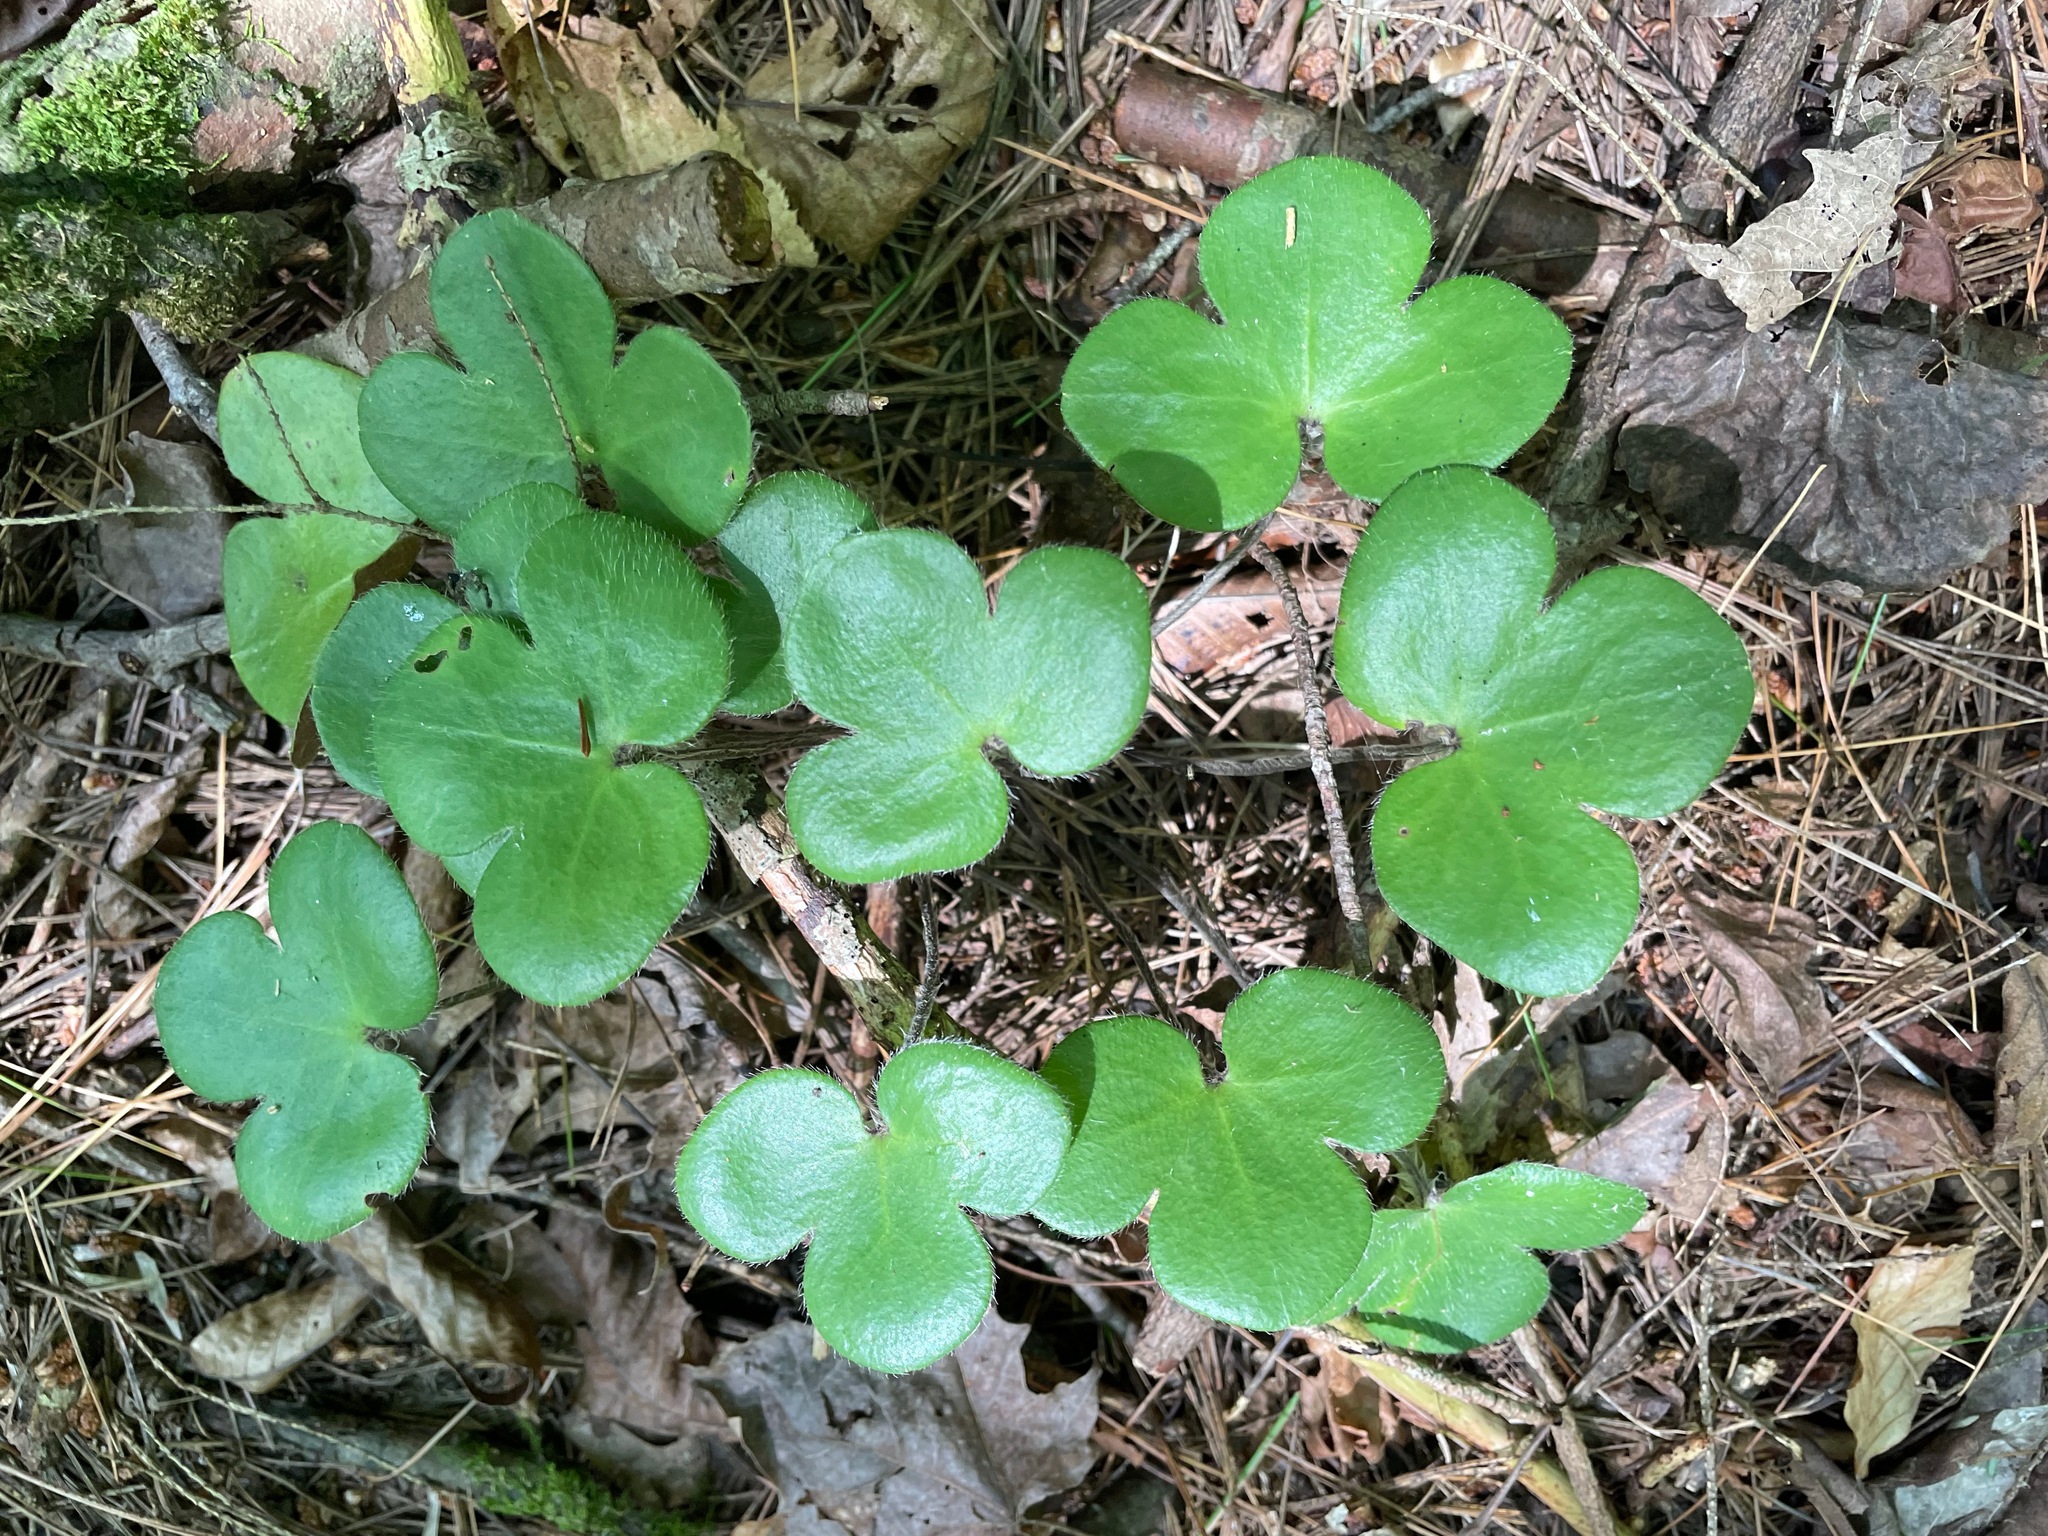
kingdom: Plantae
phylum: Tracheophyta
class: Magnoliopsida
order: Ranunculales
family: Ranunculaceae
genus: Hepatica
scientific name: Hepatica americana
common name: American hepatica
